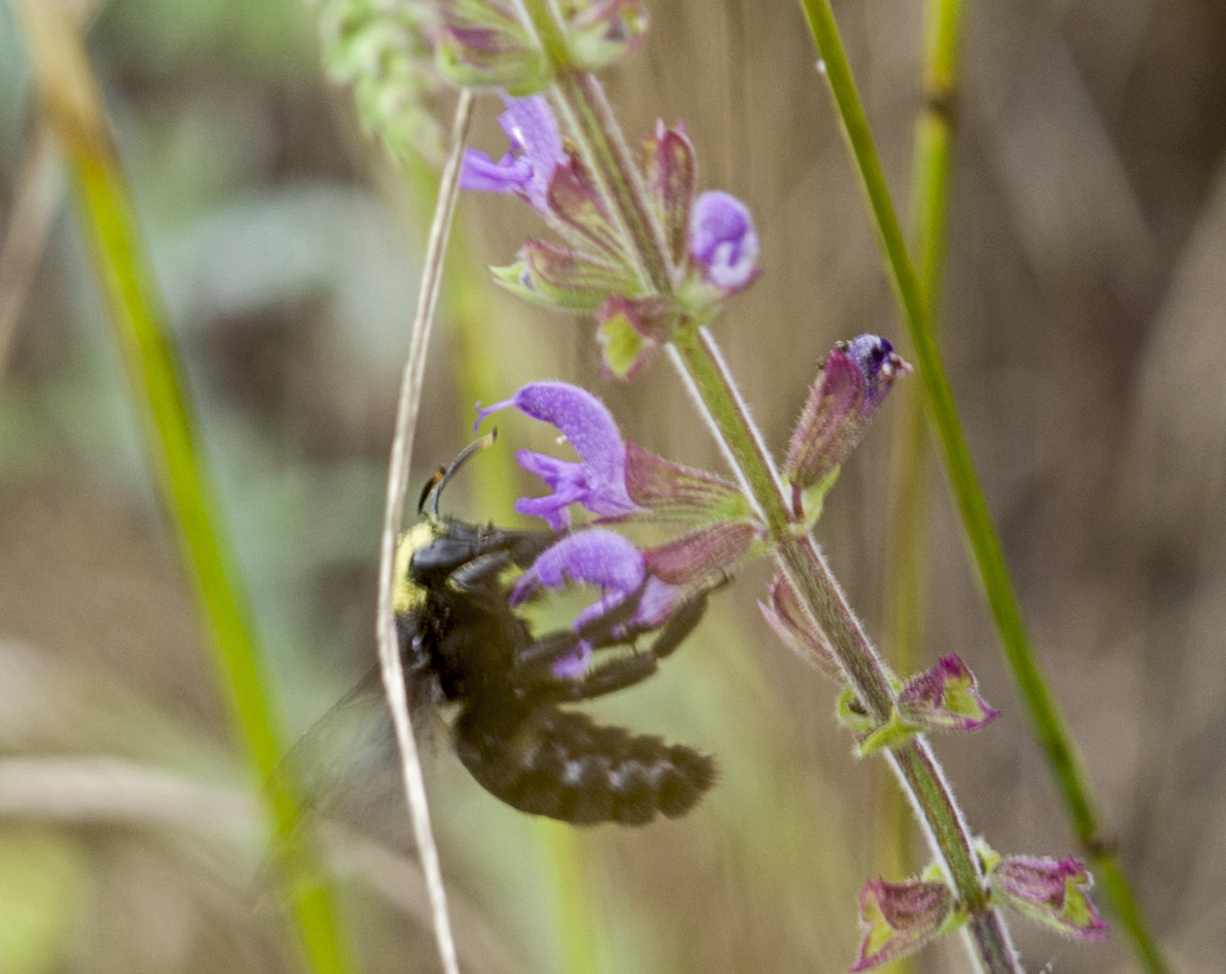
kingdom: Animalia
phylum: Arthropoda
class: Insecta
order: Hymenoptera
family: Apidae
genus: Xylocopa
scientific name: Xylocopa violacea
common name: Violet carpenter bee
